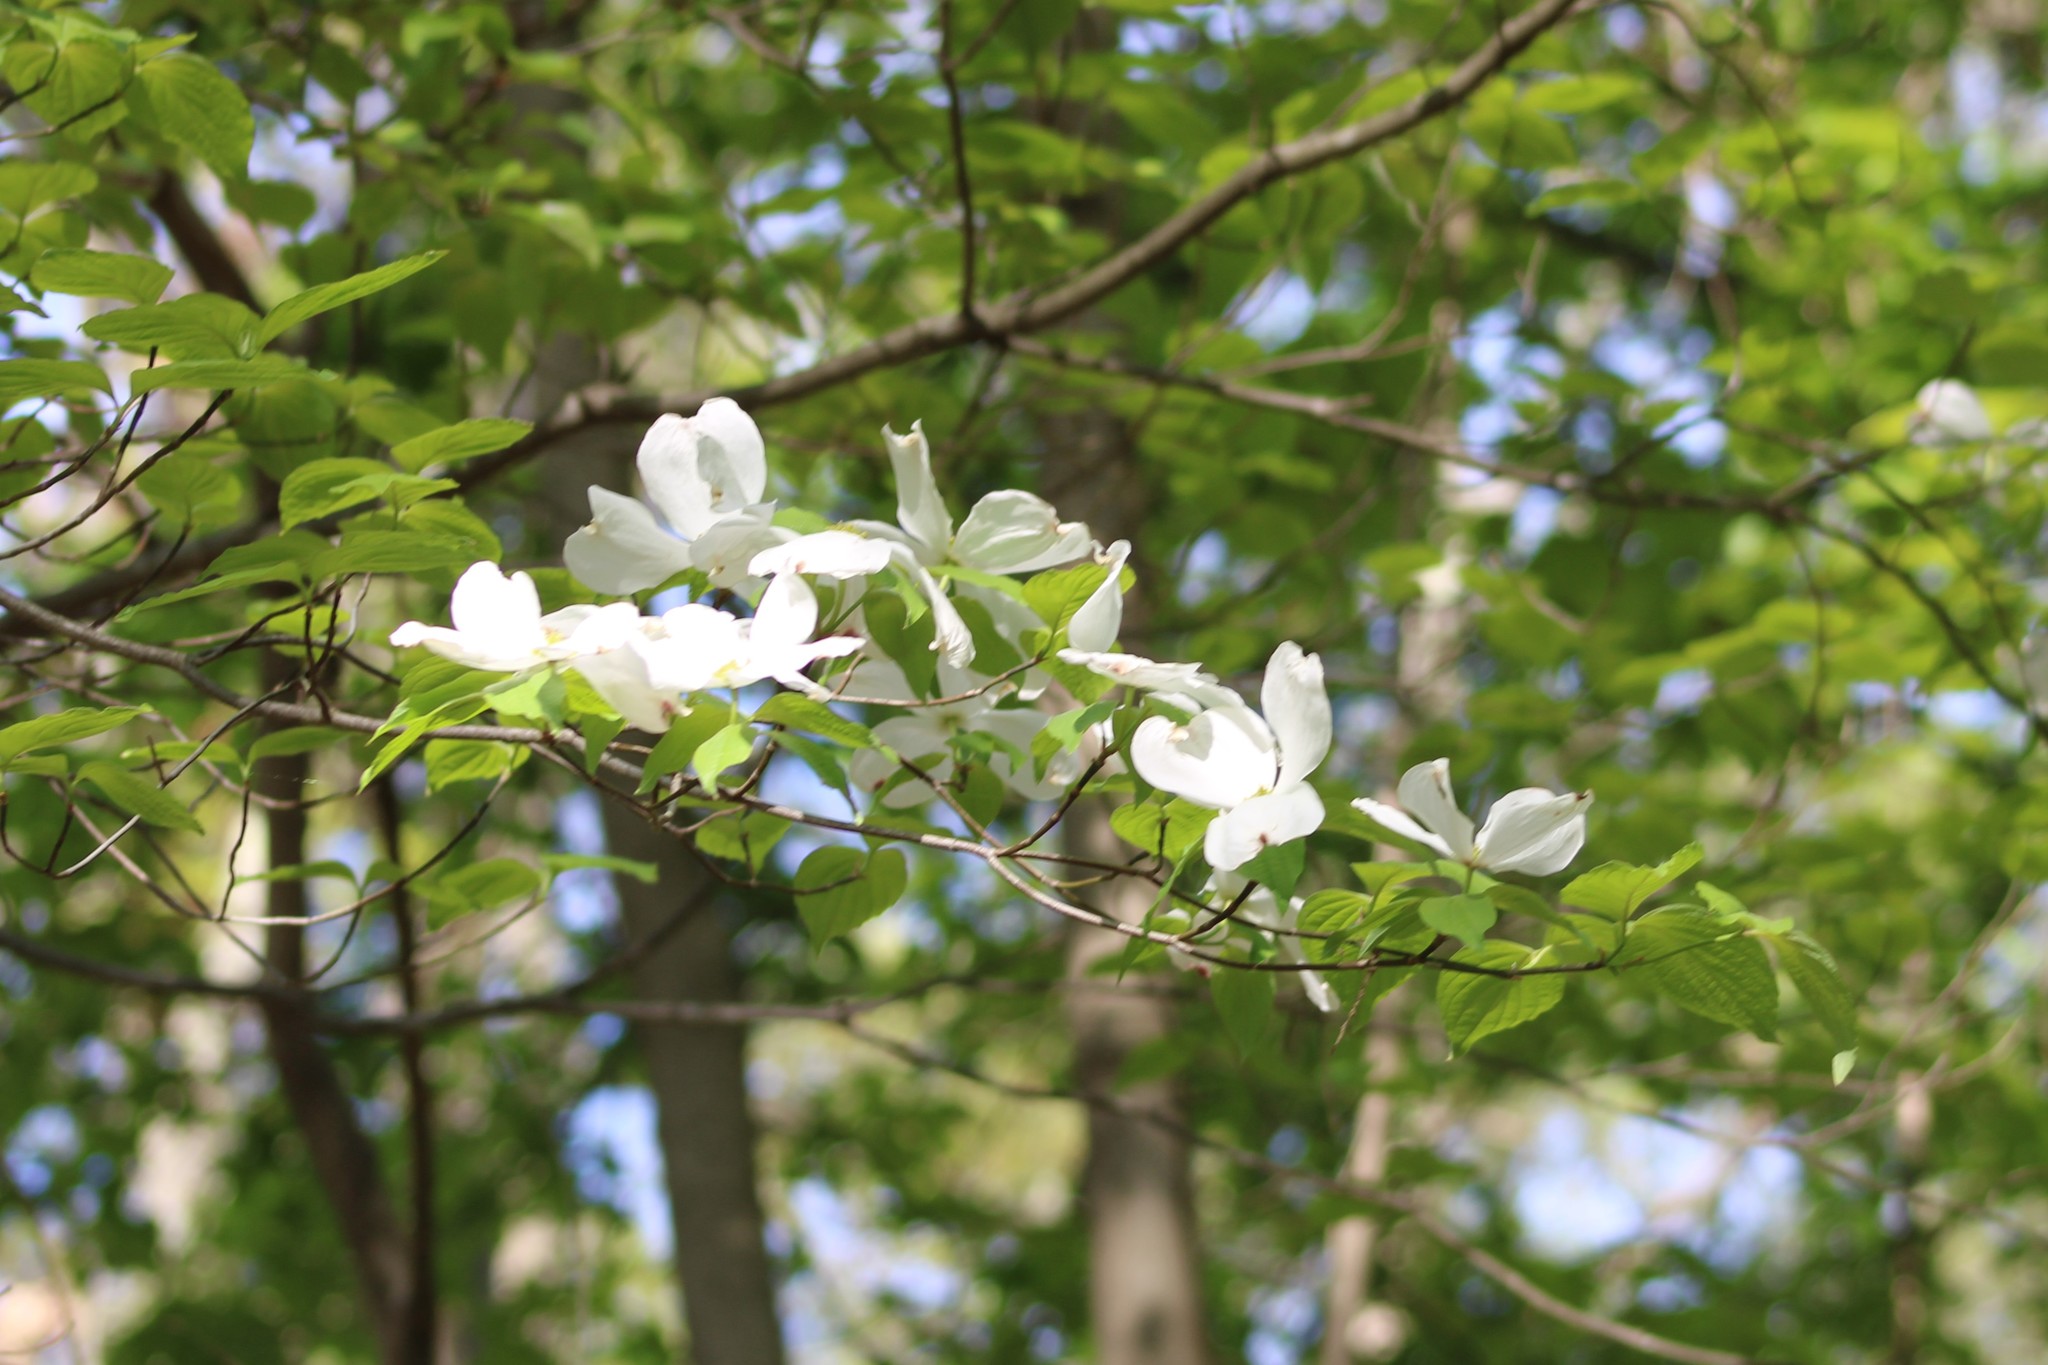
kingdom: Plantae
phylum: Tracheophyta
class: Magnoliopsida
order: Cornales
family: Cornaceae
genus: Cornus
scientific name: Cornus florida
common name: Flowering dogwood
